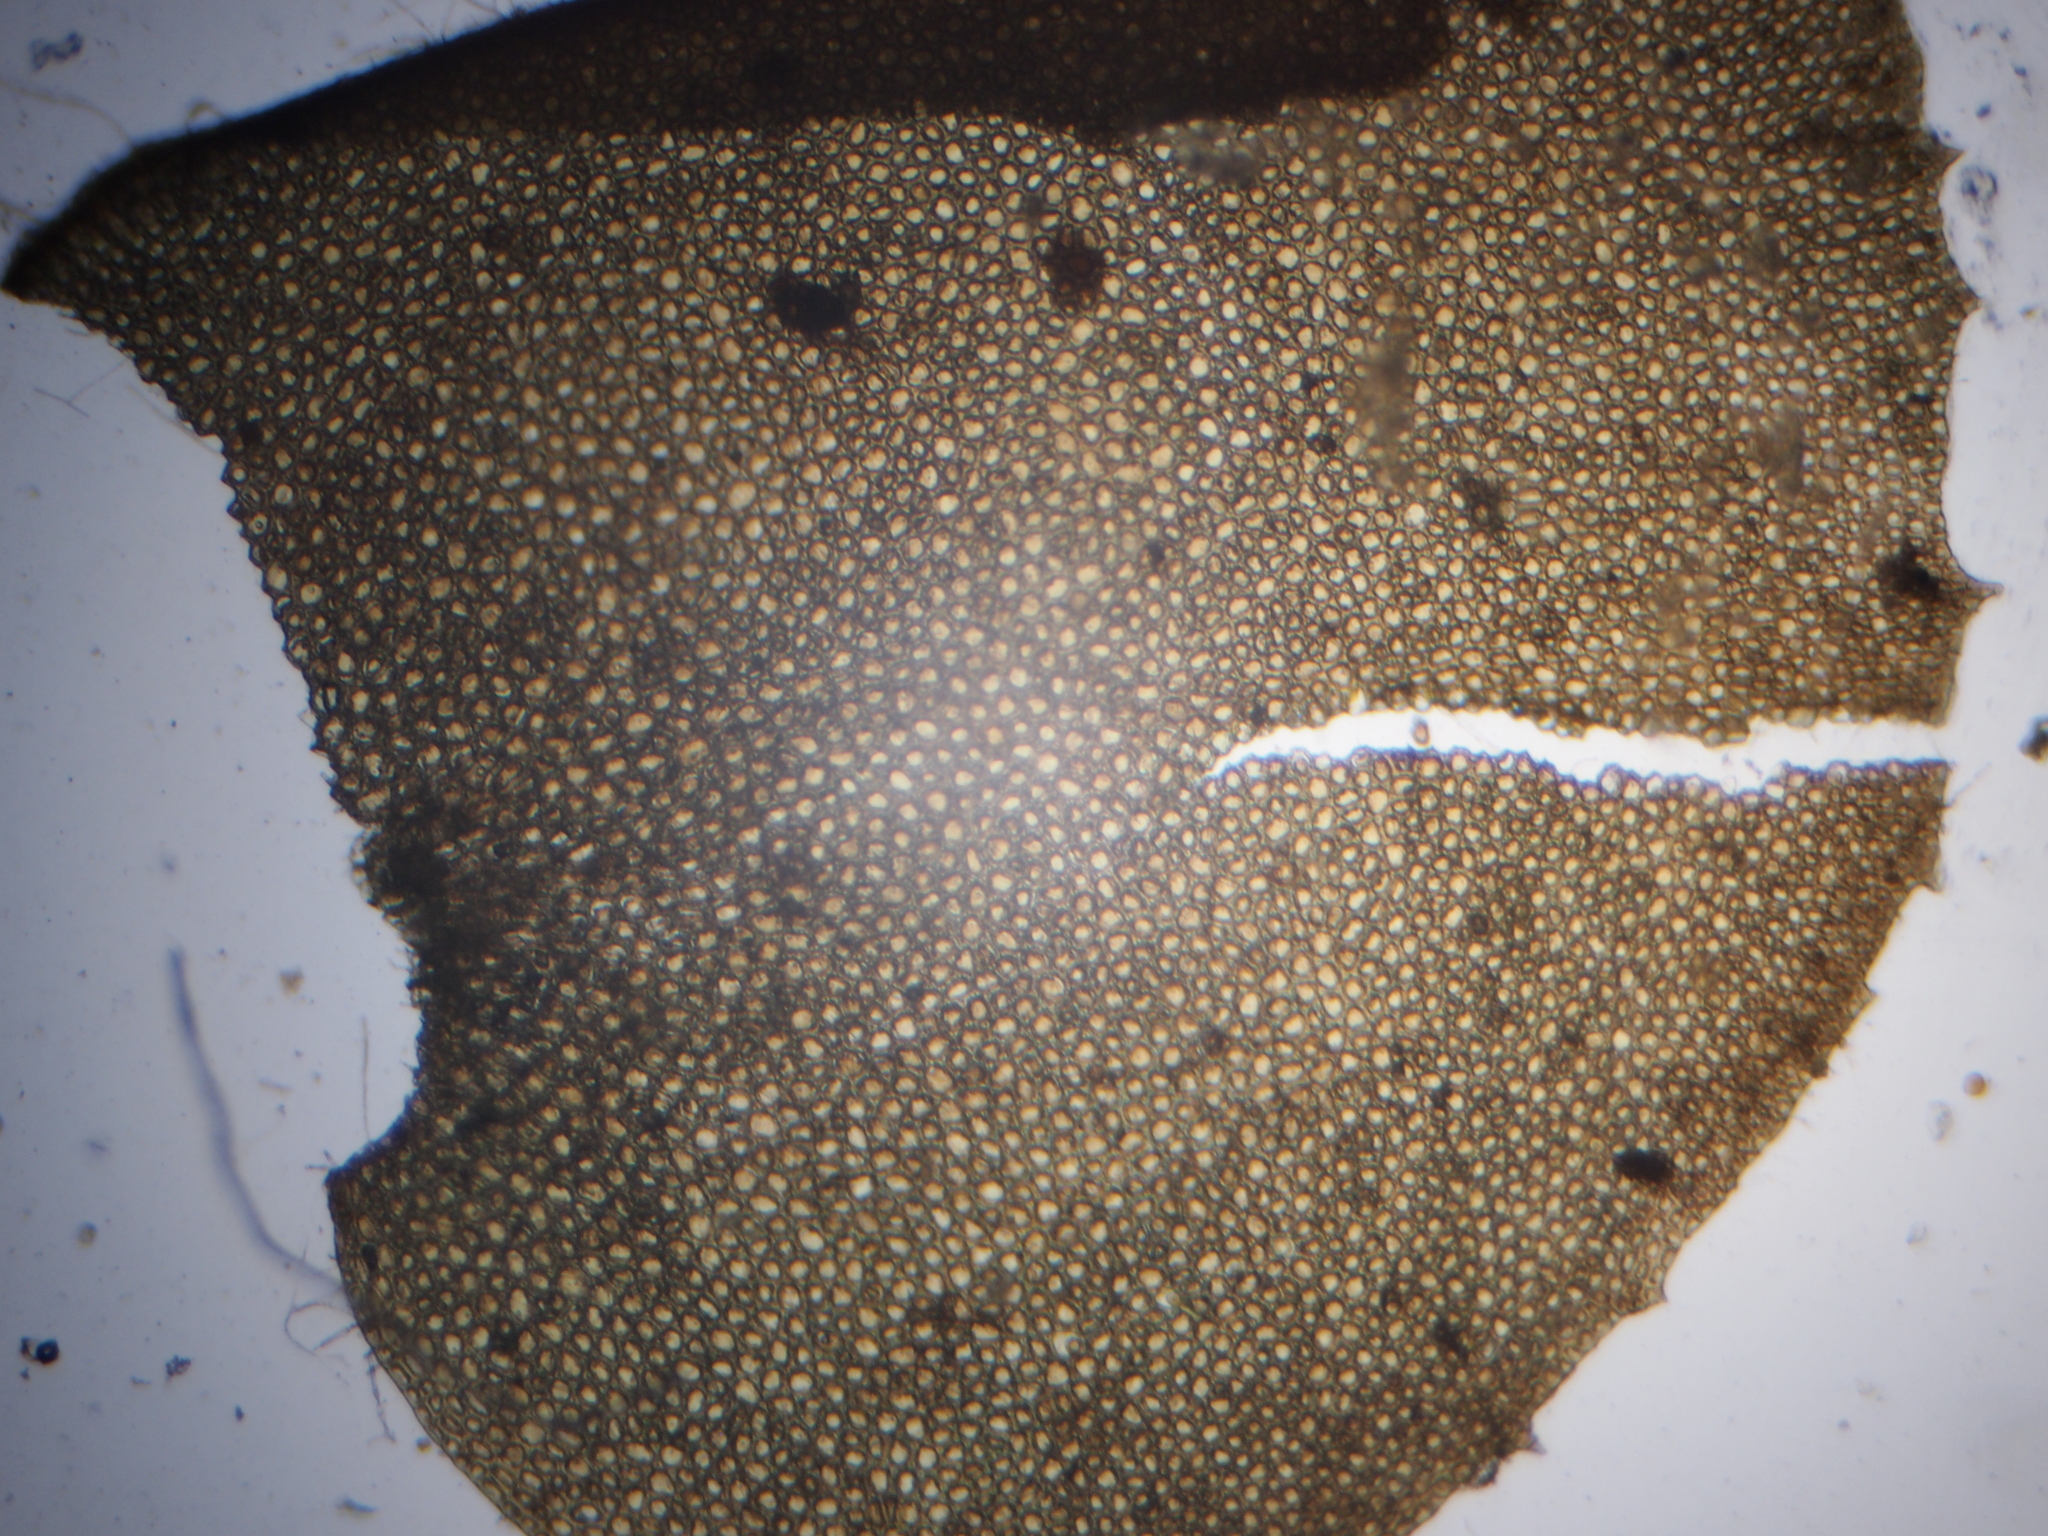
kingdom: Plantae
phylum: Marchantiophyta
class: Jungermanniopsida
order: Jungermanniales
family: Plagiochilaceae
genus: Plagiochila
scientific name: Plagiochila asplenioides
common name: Greater featherwort
